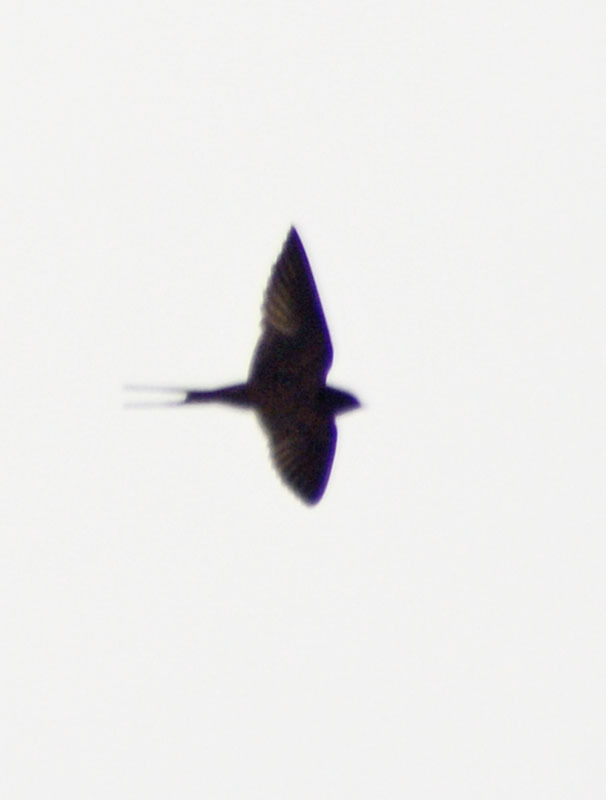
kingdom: Animalia
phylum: Chordata
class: Aves
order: Passeriformes
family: Hirundinidae
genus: Hirundo
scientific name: Hirundo rustica
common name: Barn swallow
